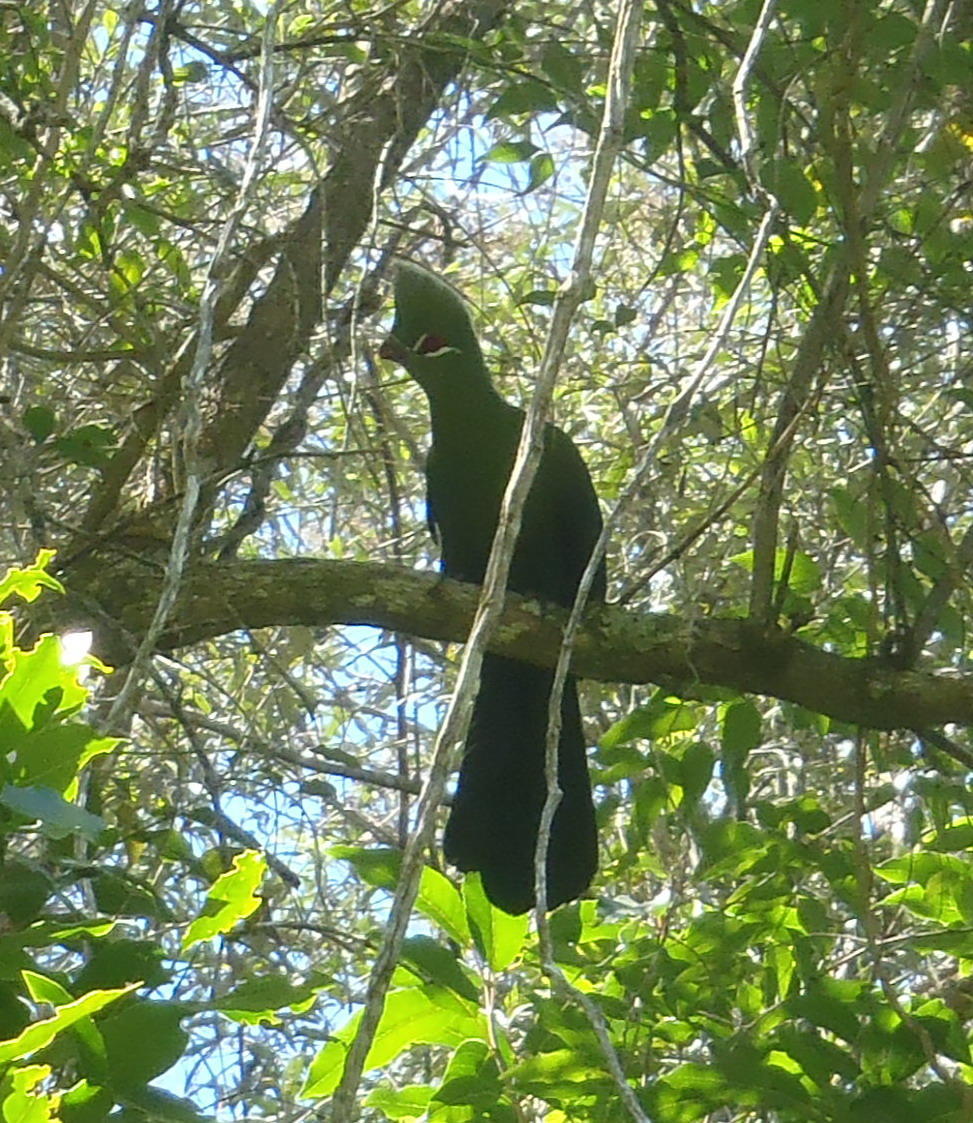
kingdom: Animalia
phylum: Chordata
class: Aves
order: Musophagiformes
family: Musophagidae
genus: Tauraco
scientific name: Tauraco corythaix
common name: Knysna turaco
